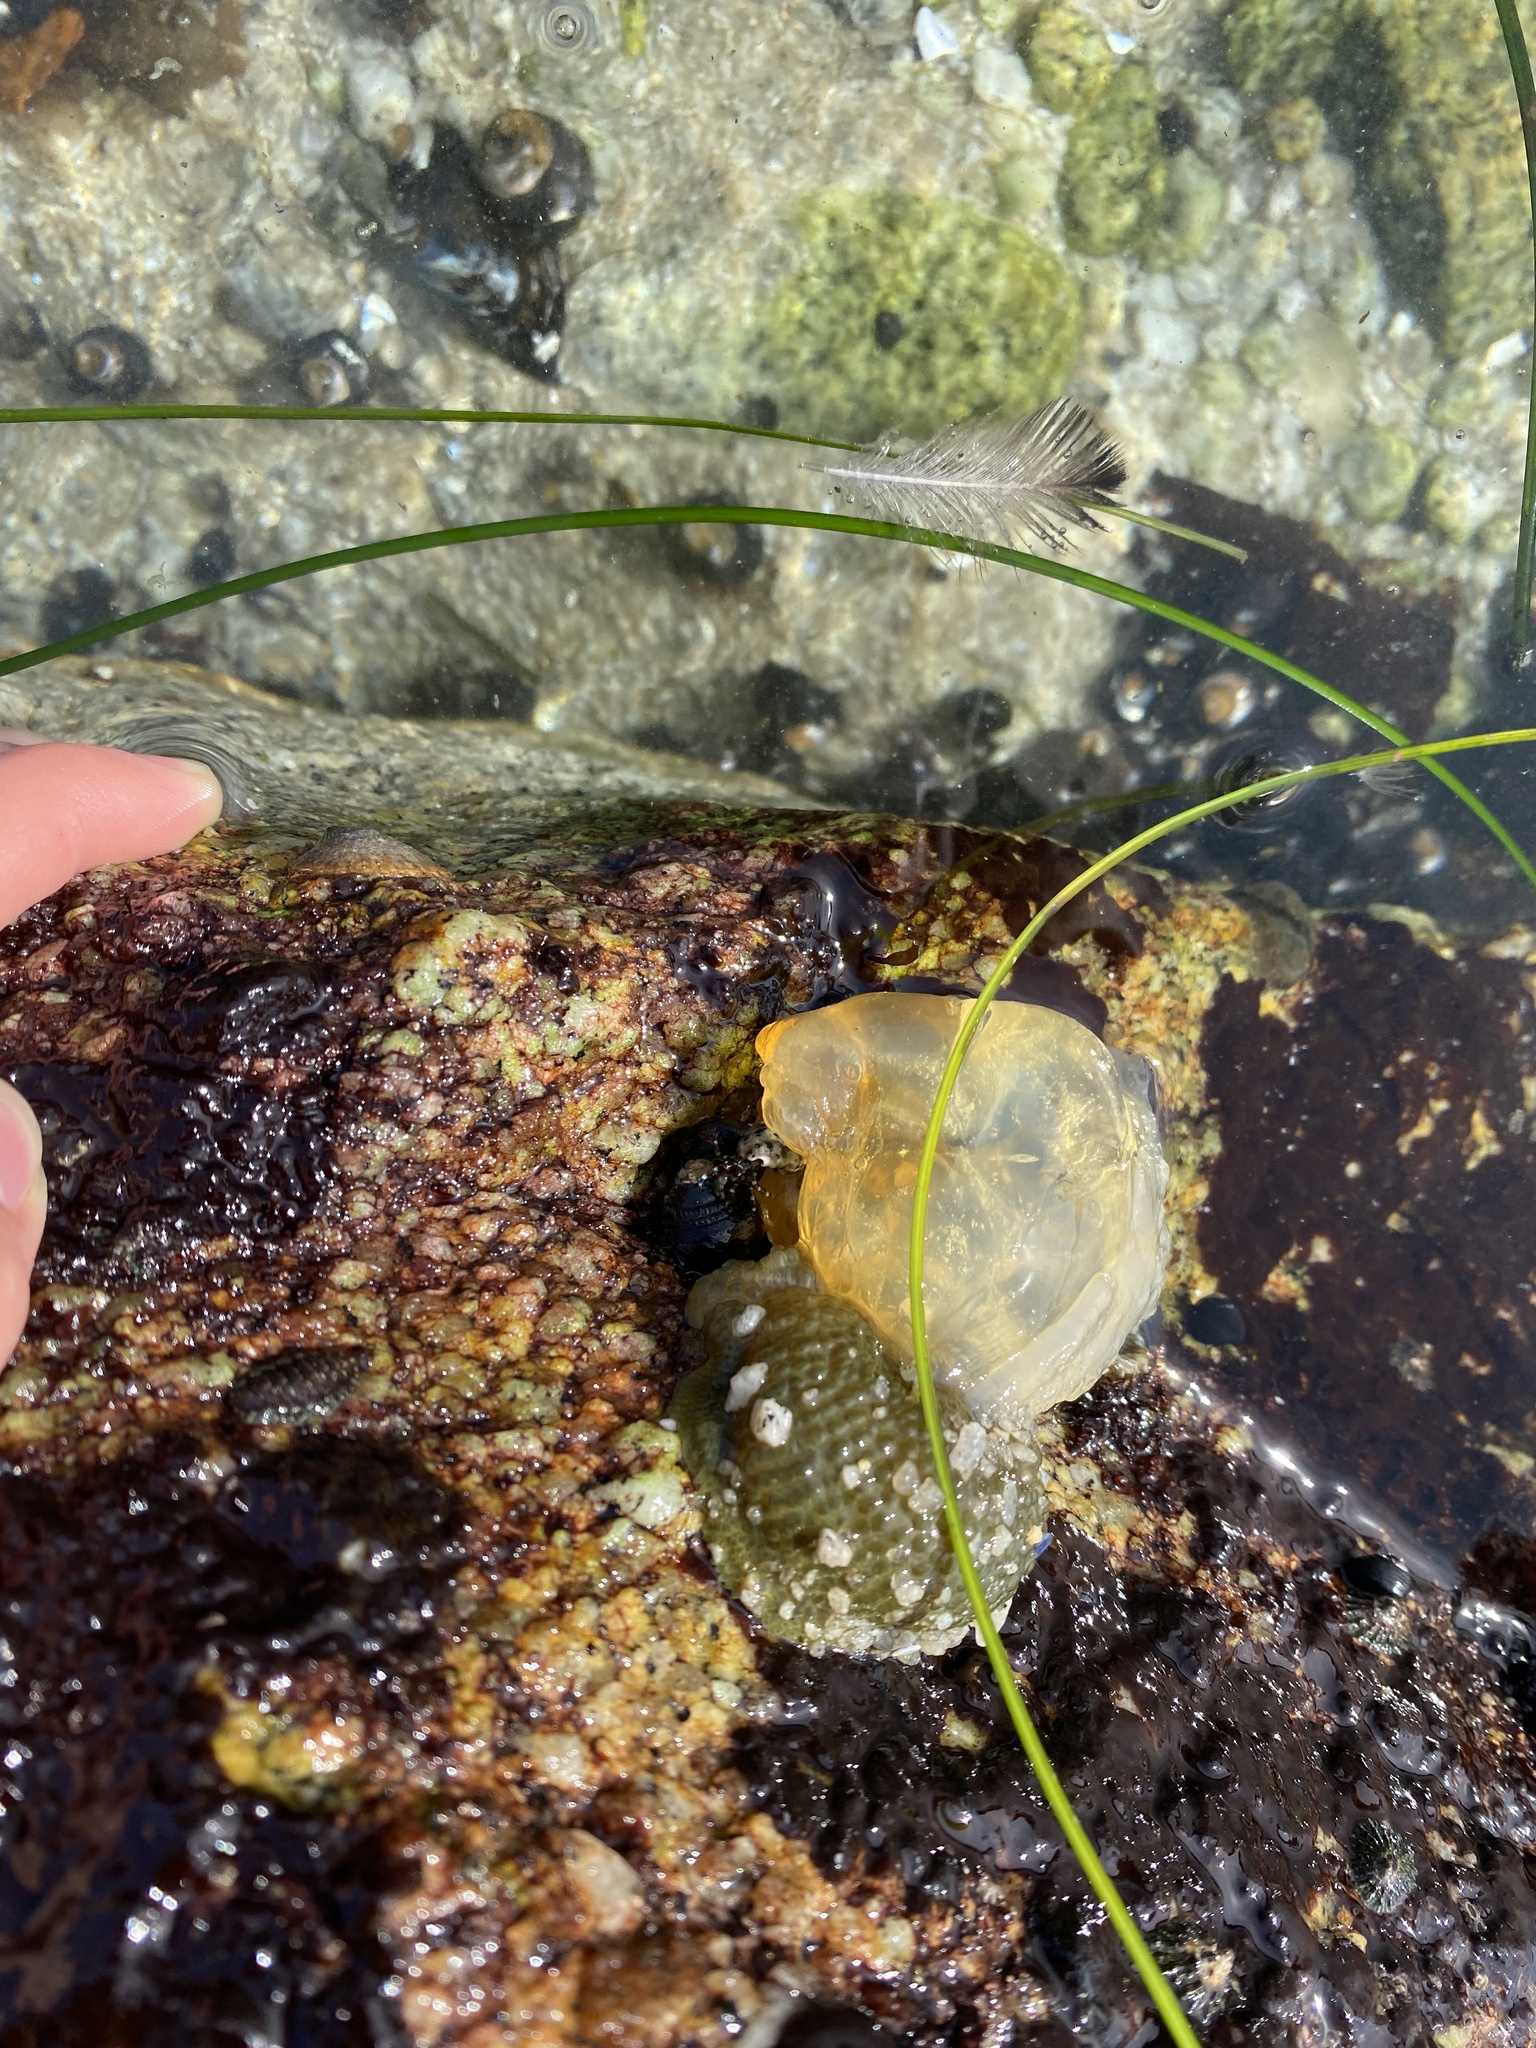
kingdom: Animalia
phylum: Cnidaria
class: Anthozoa
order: Actiniaria
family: Actiniidae
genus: Anthopleura
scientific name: Anthopleura elegantissima
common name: Clonal anemone
